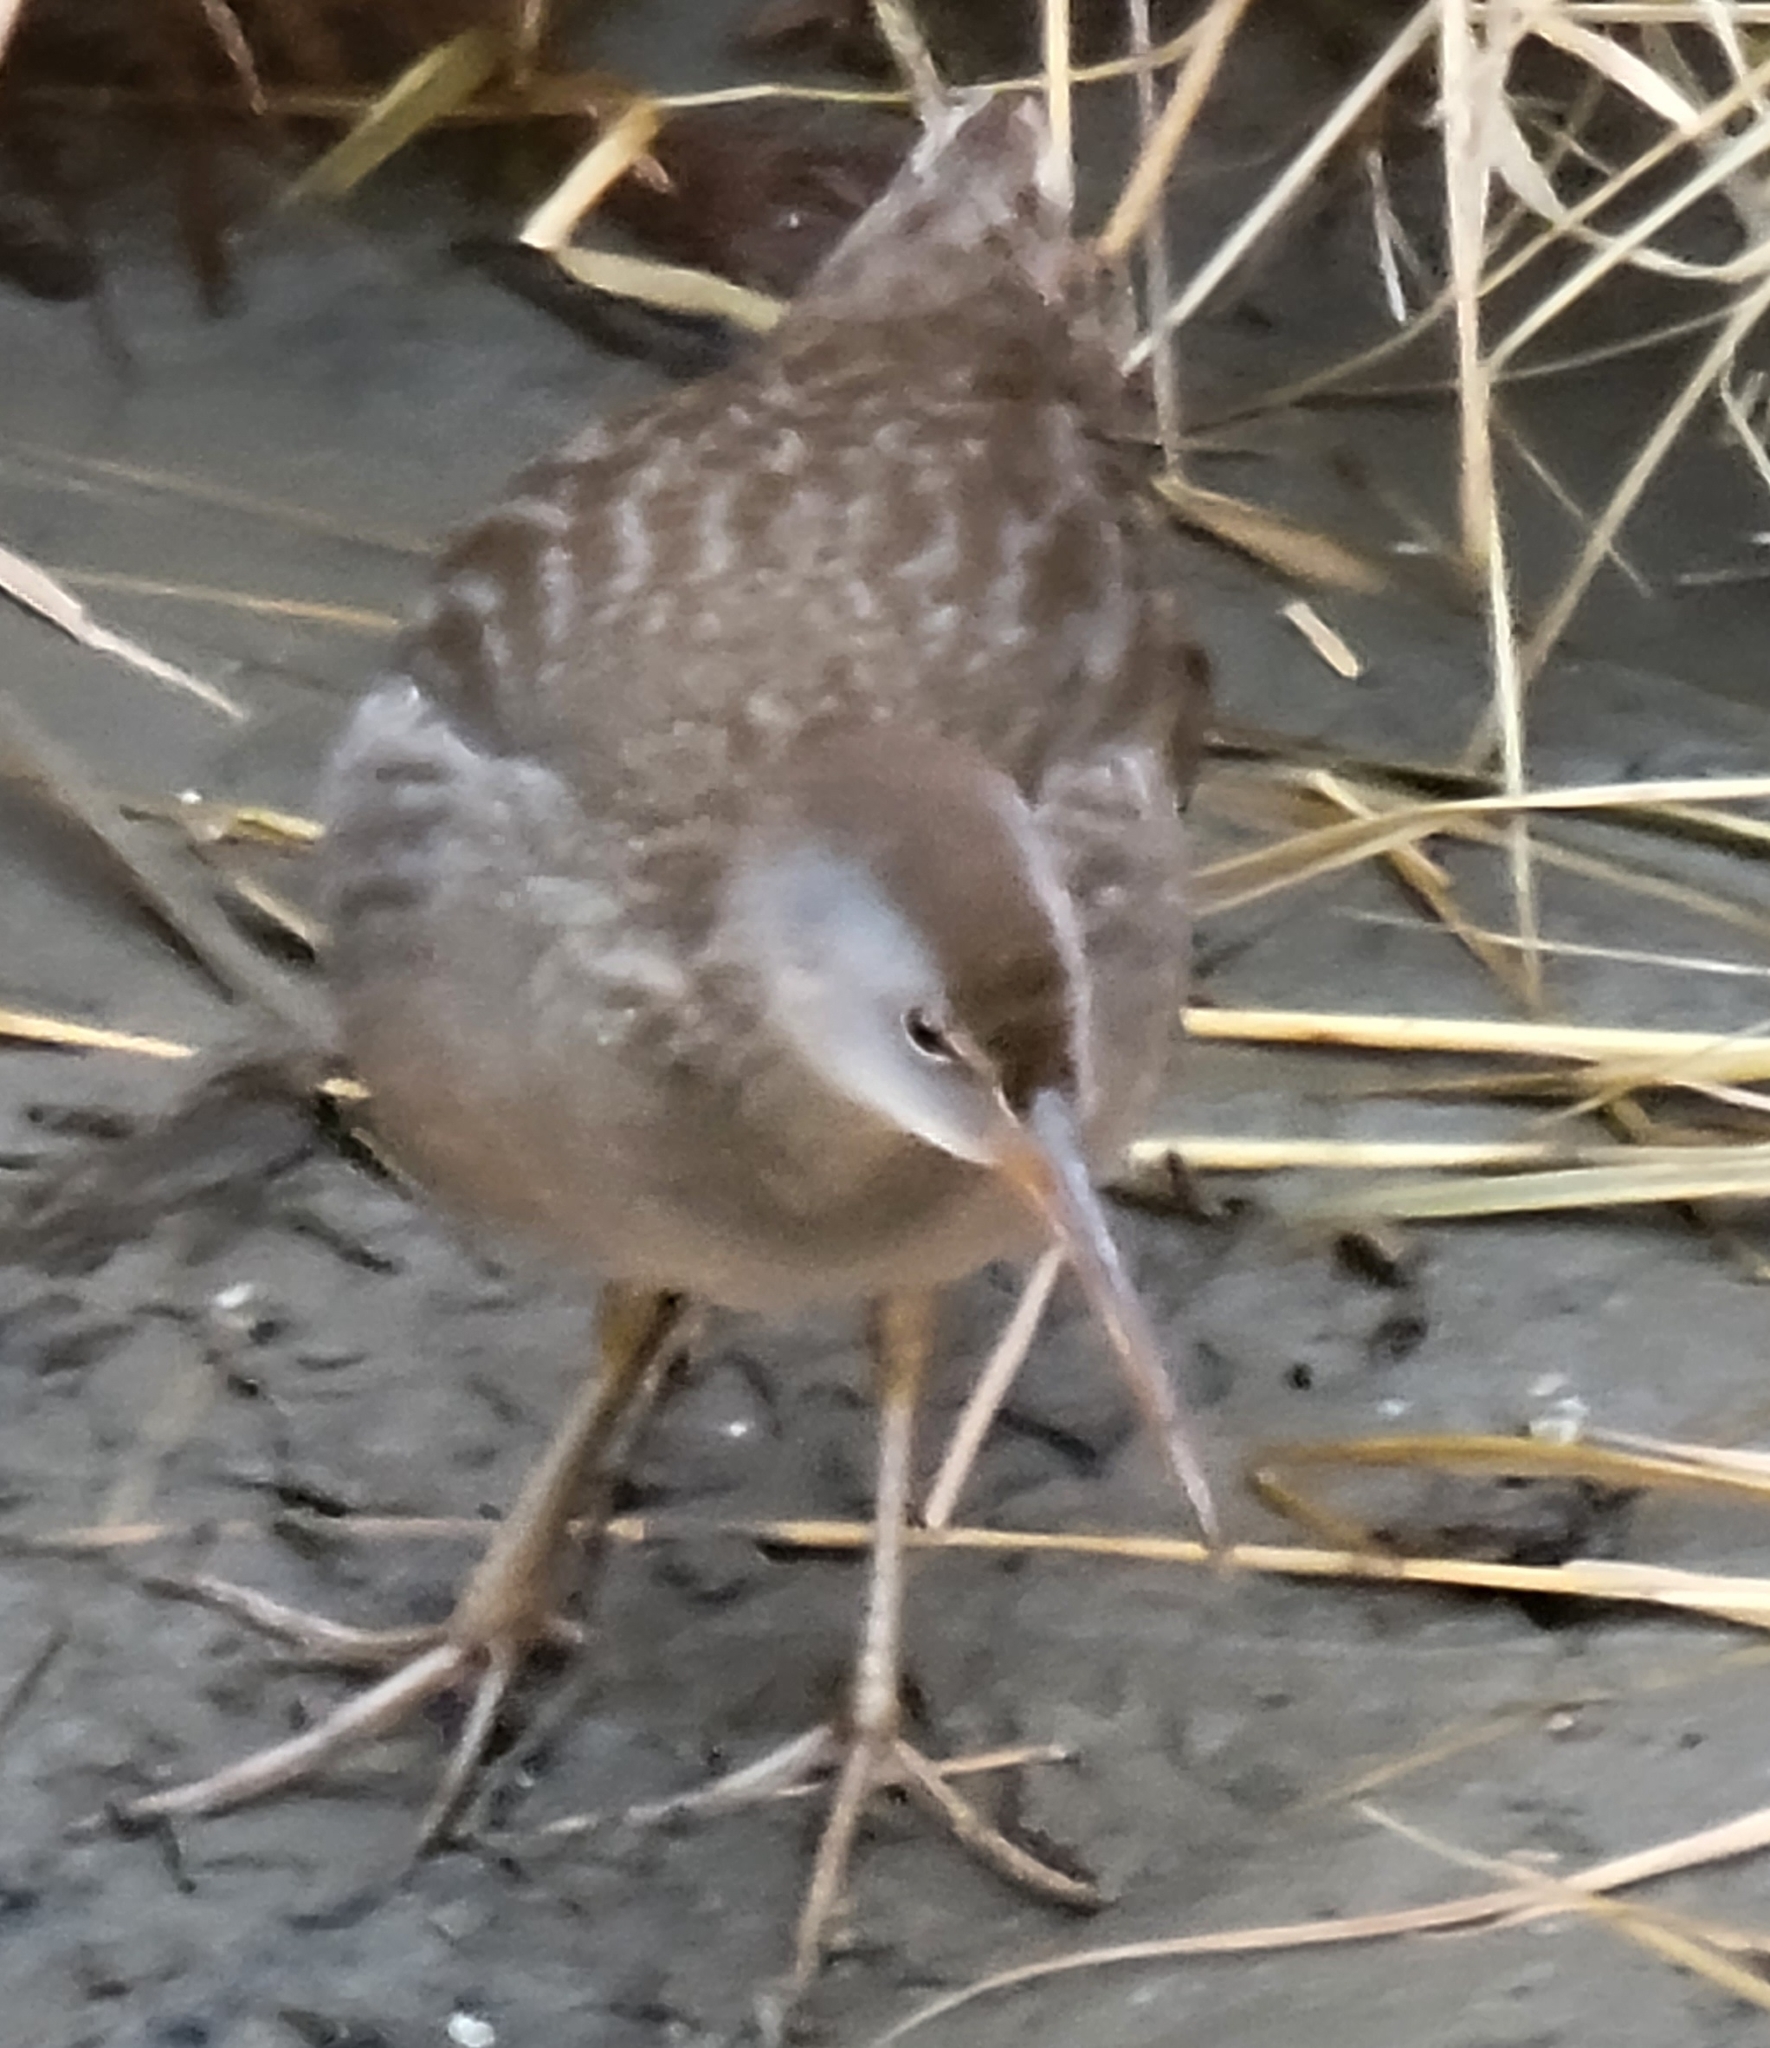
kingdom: Animalia
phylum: Chordata
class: Aves
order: Gruiformes
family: Rallidae
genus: Rallus
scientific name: Rallus crepitans
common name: Clapper rail
